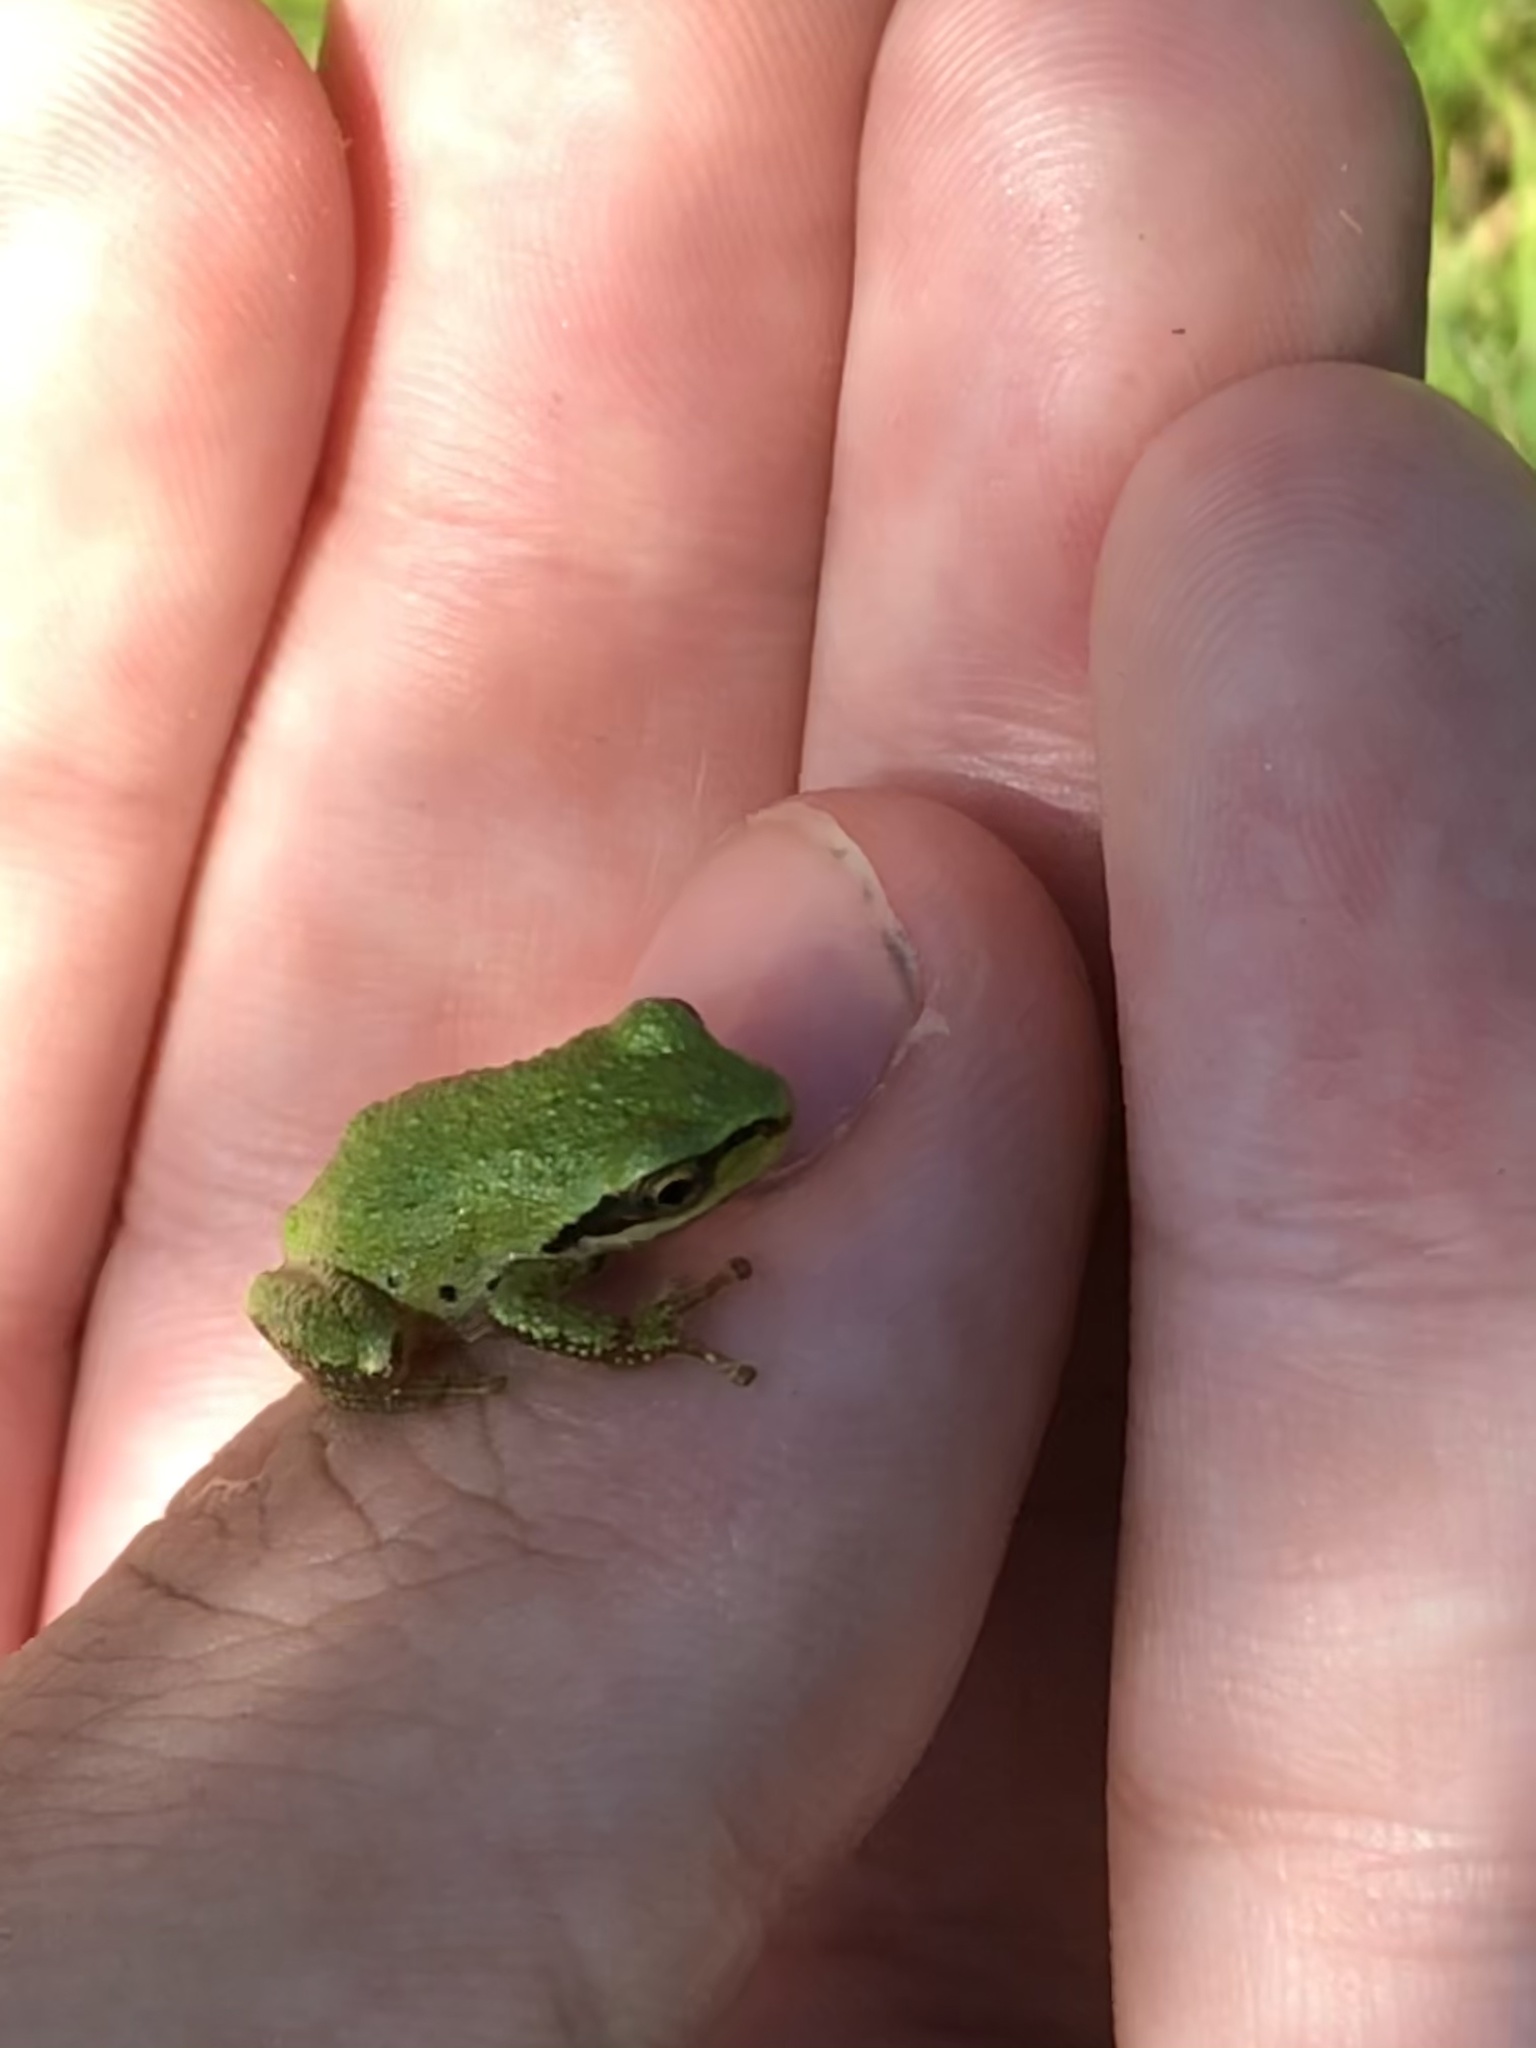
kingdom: Animalia
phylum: Chordata
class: Amphibia
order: Anura
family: Hylidae
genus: Pseudacris
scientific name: Pseudacris regilla
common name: Pacific chorus frog
